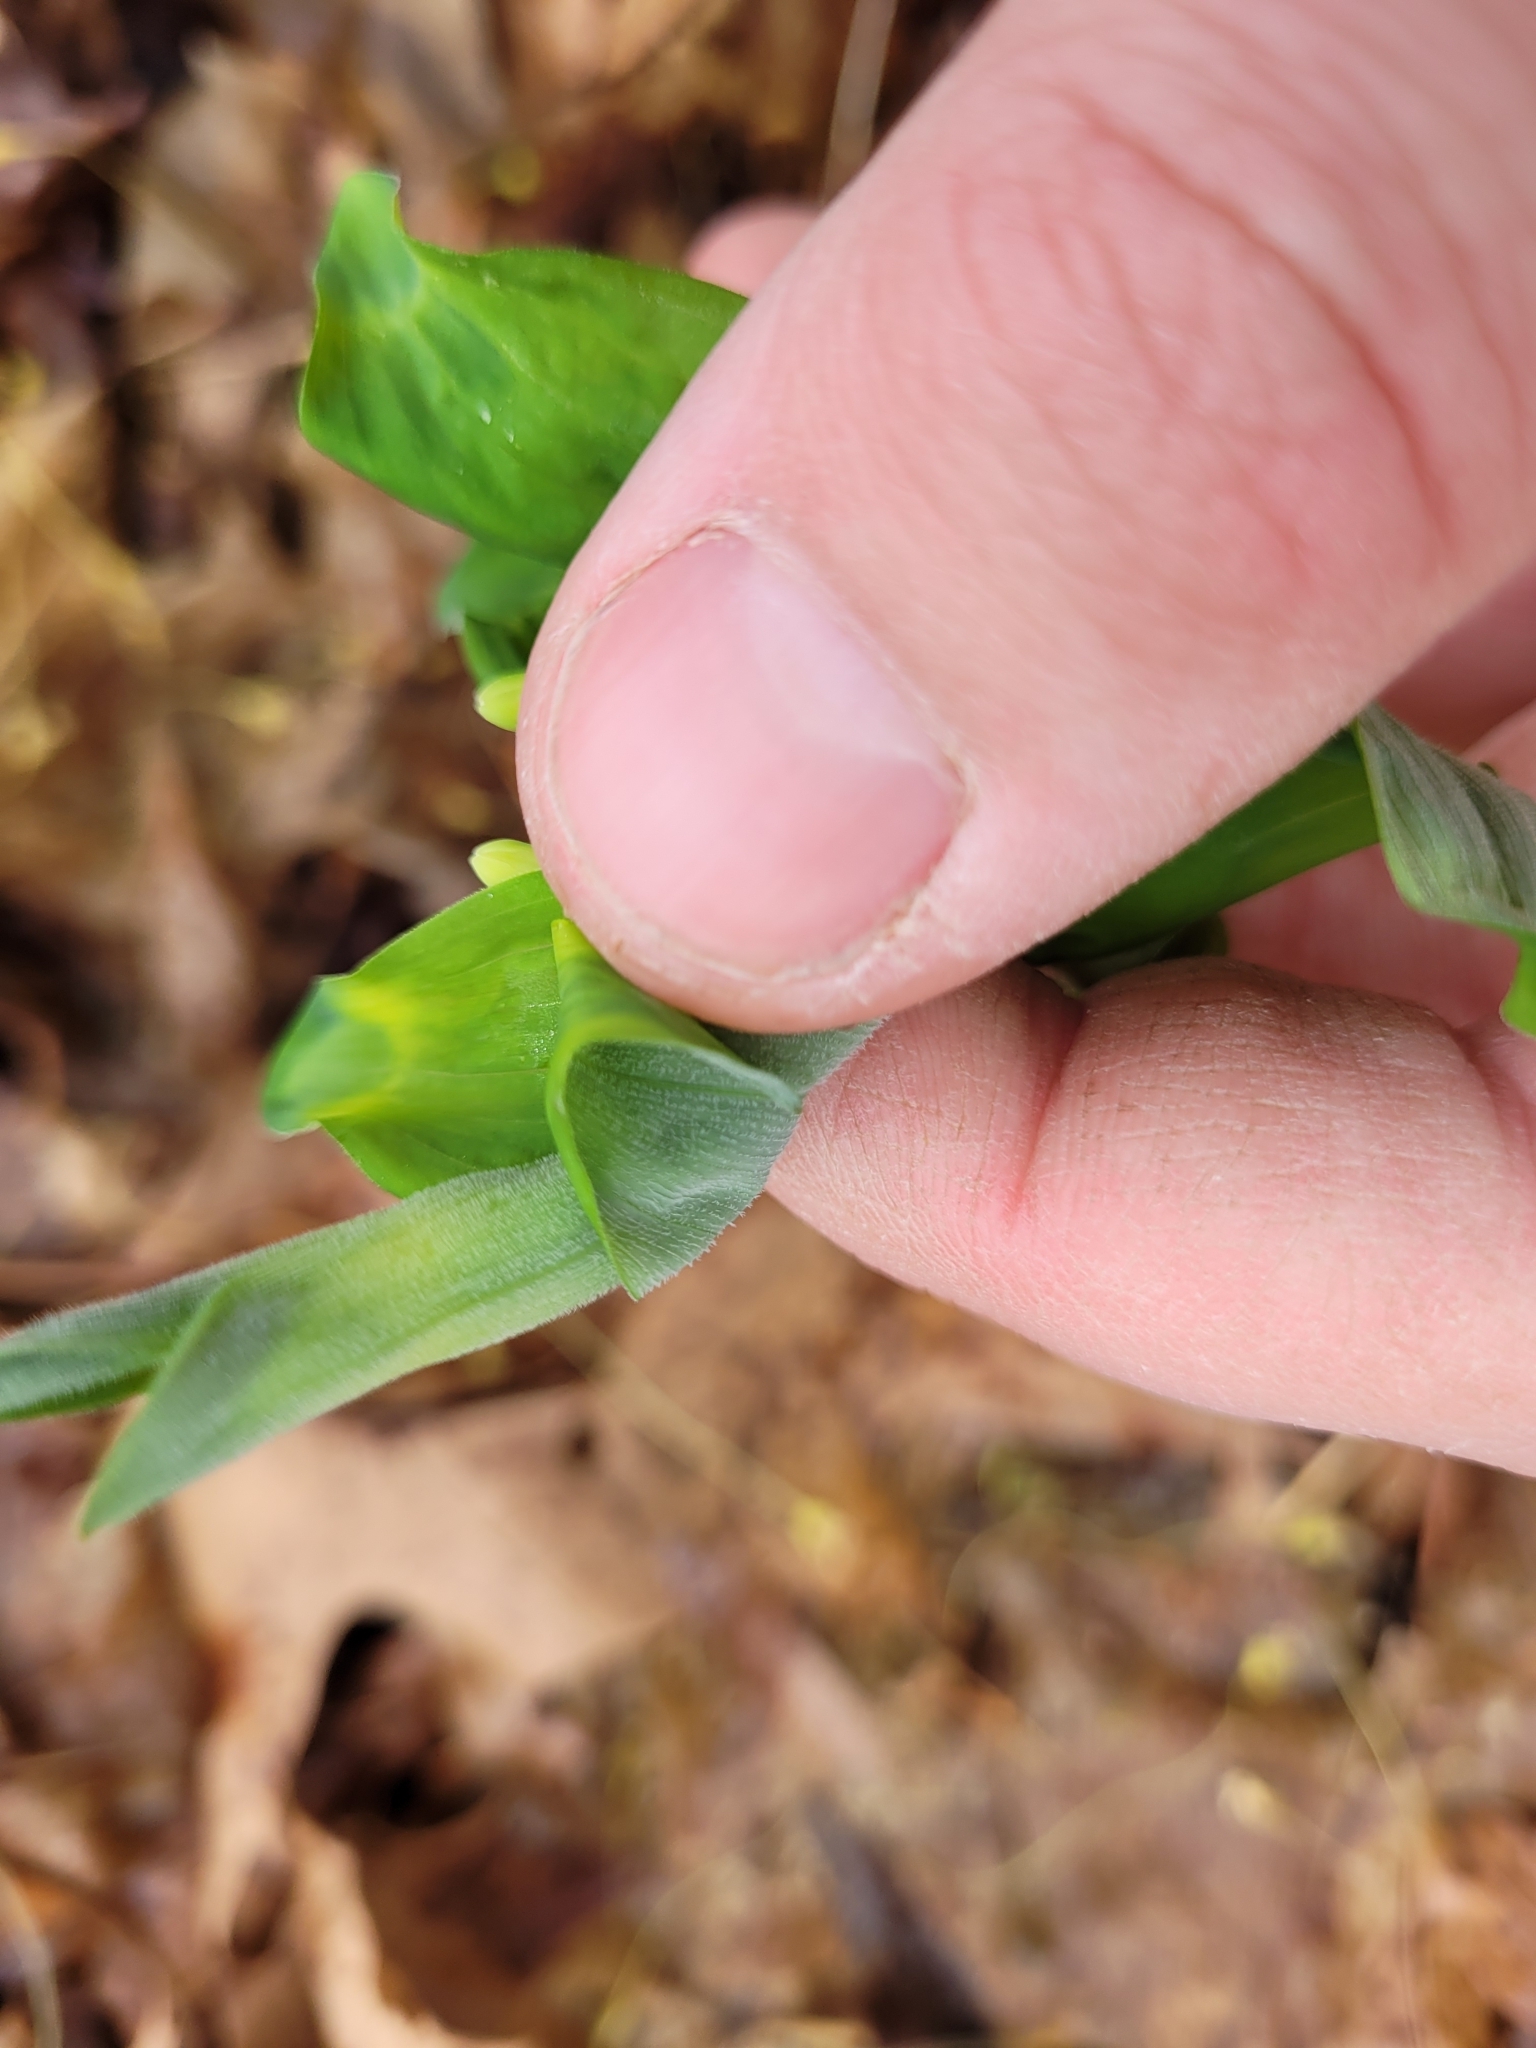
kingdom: Plantae
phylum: Tracheophyta
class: Liliopsida
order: Asparagales
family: Asparagaceae
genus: Polygonatum
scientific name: Polygonatum pubescens
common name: Downy solomon's seal
